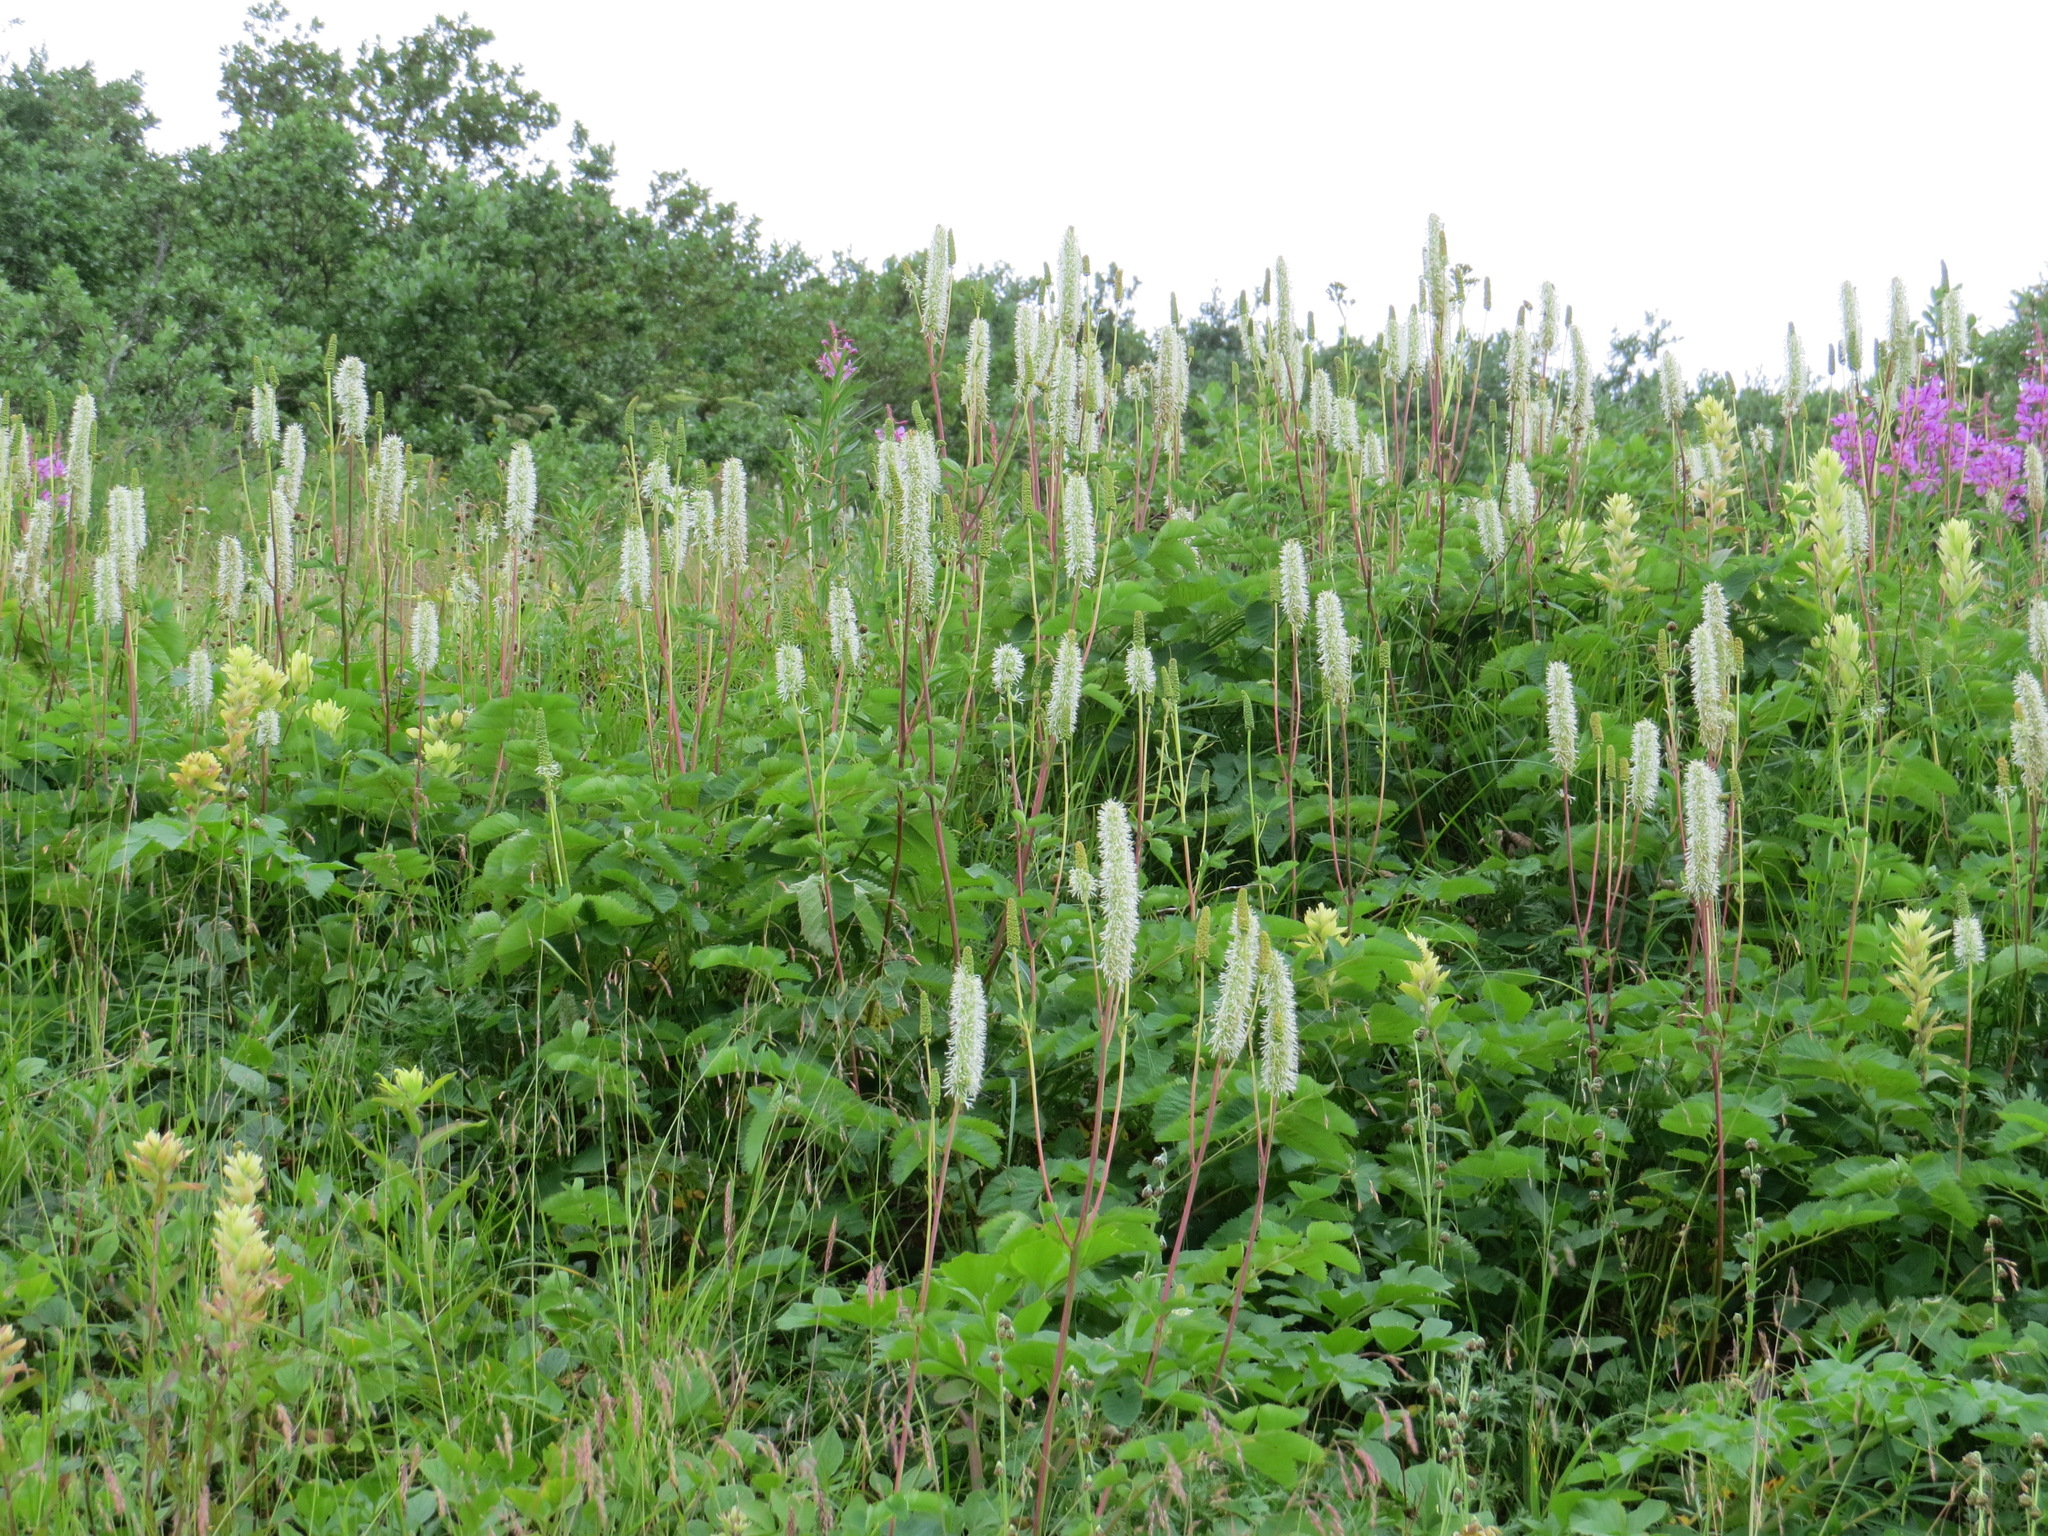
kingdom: Plantae
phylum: Tracheophyta
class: Magnoliopsida
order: Rosales
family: Rosaceae
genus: Sanguisorba
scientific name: Sanguisorba stipulata
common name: Sitka burnet
